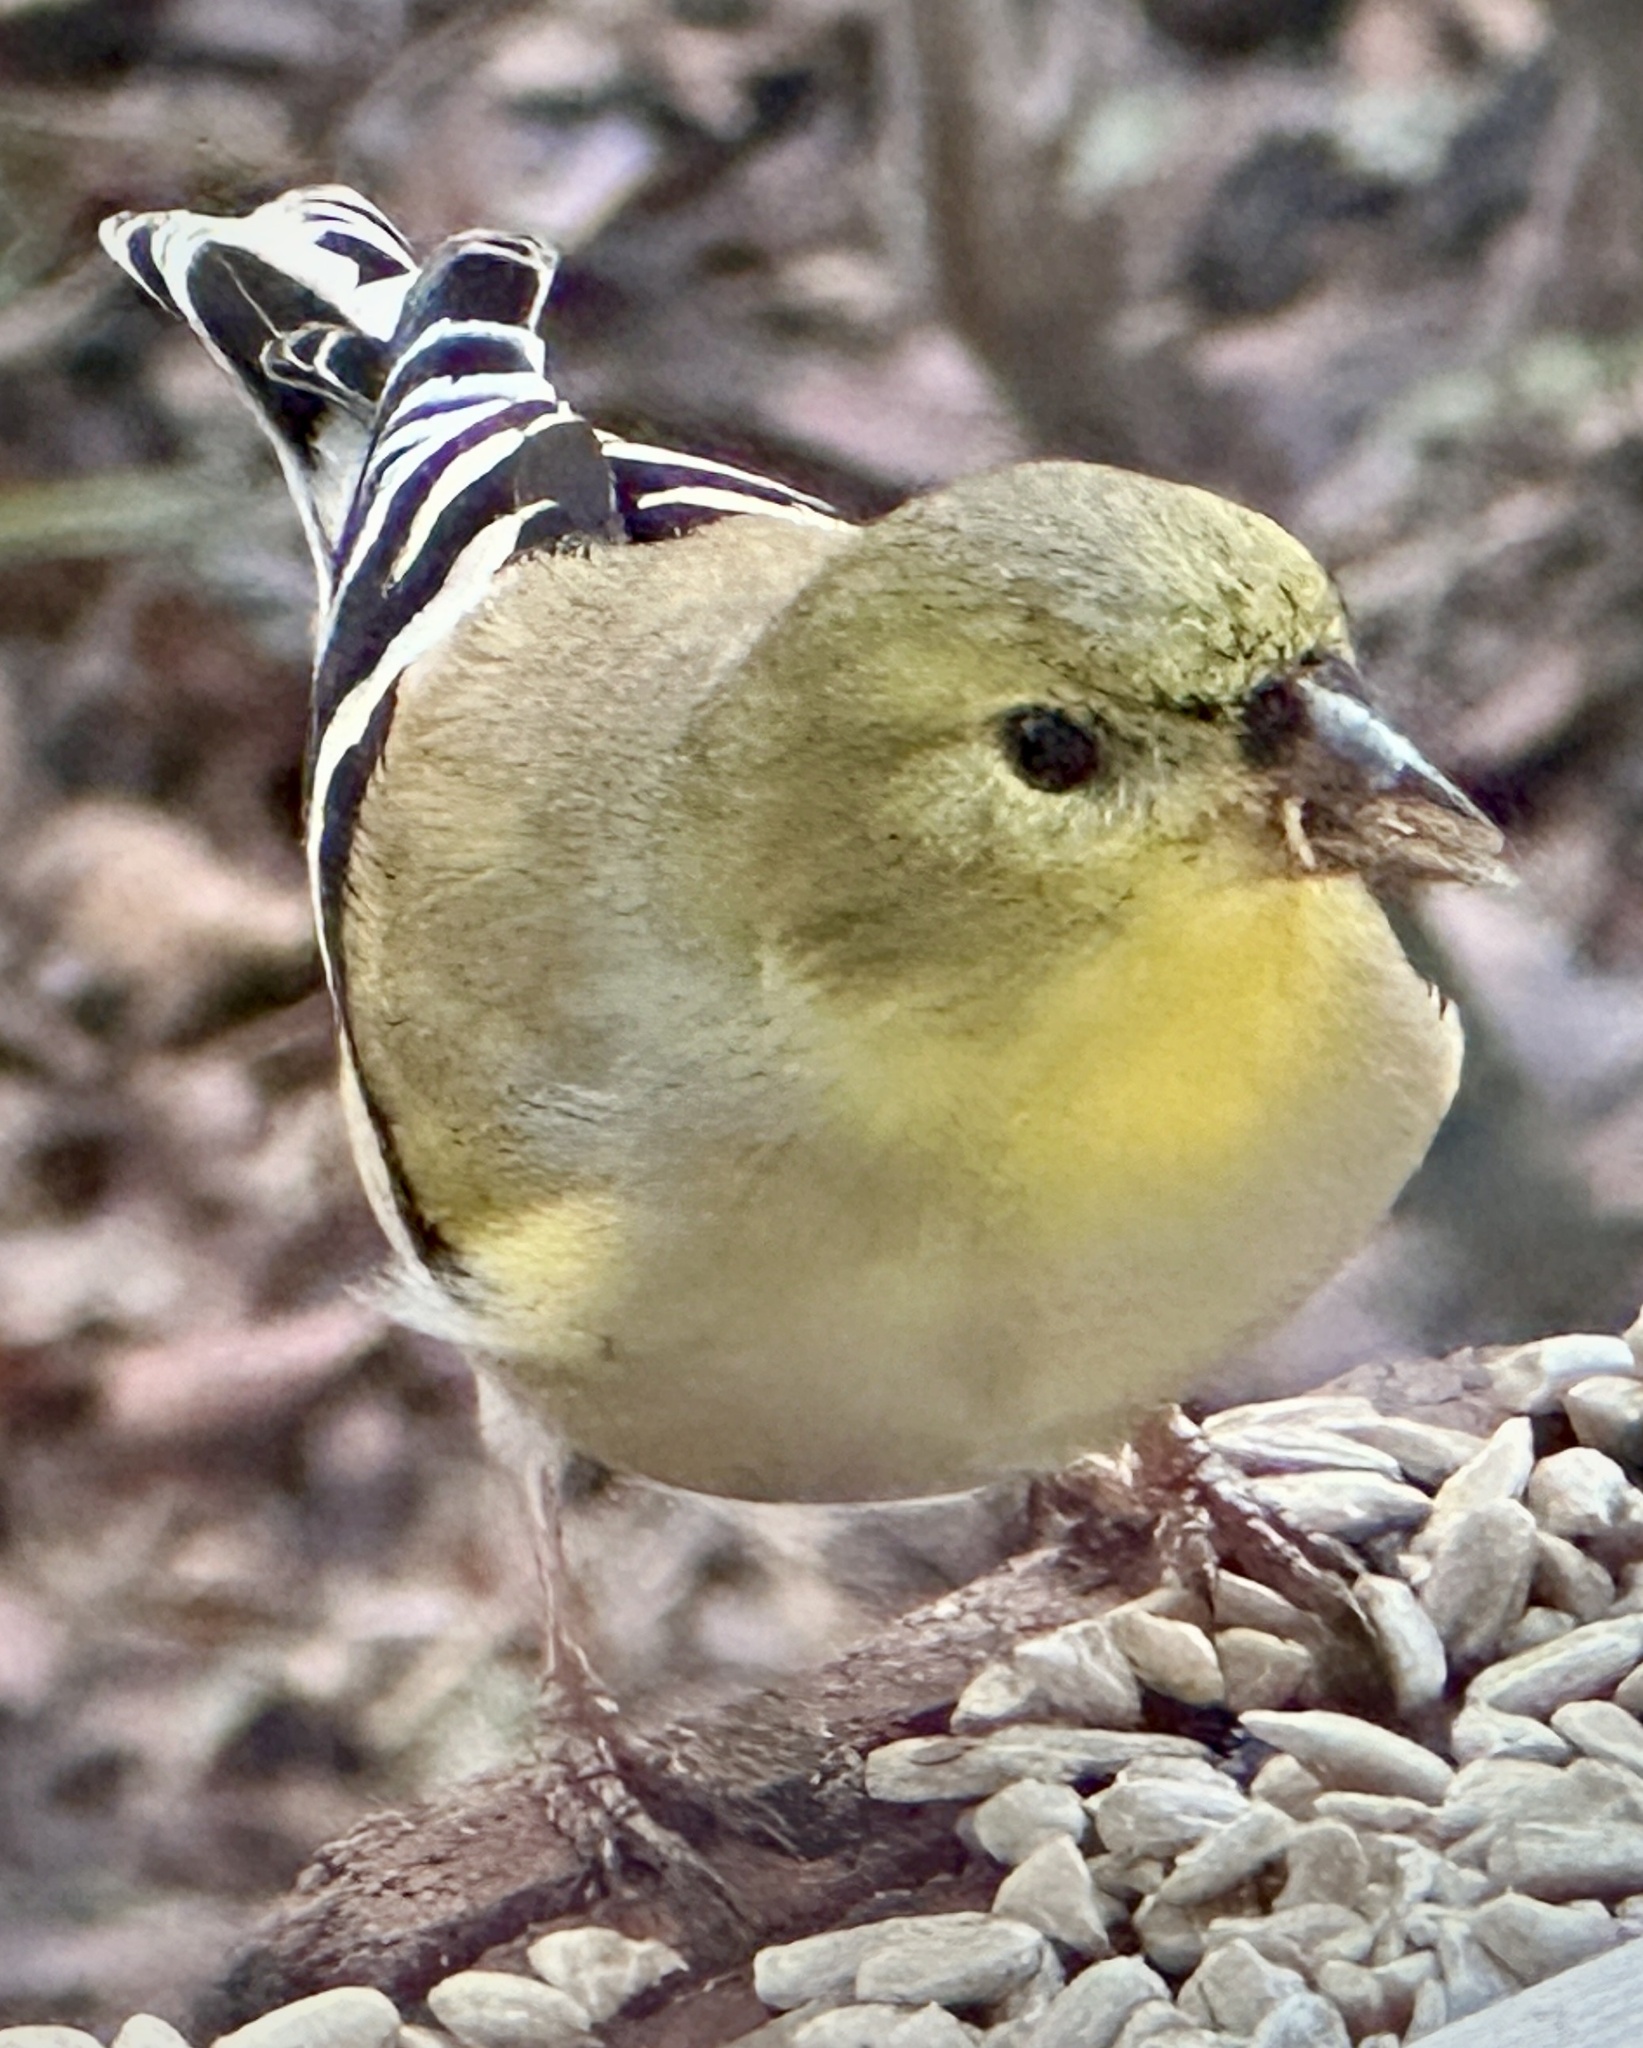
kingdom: Animalia
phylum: Chordata
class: Aves
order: Passeriformes
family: Fringillidae
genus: Spinus
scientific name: Spinus tristis
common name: American goldfinch
